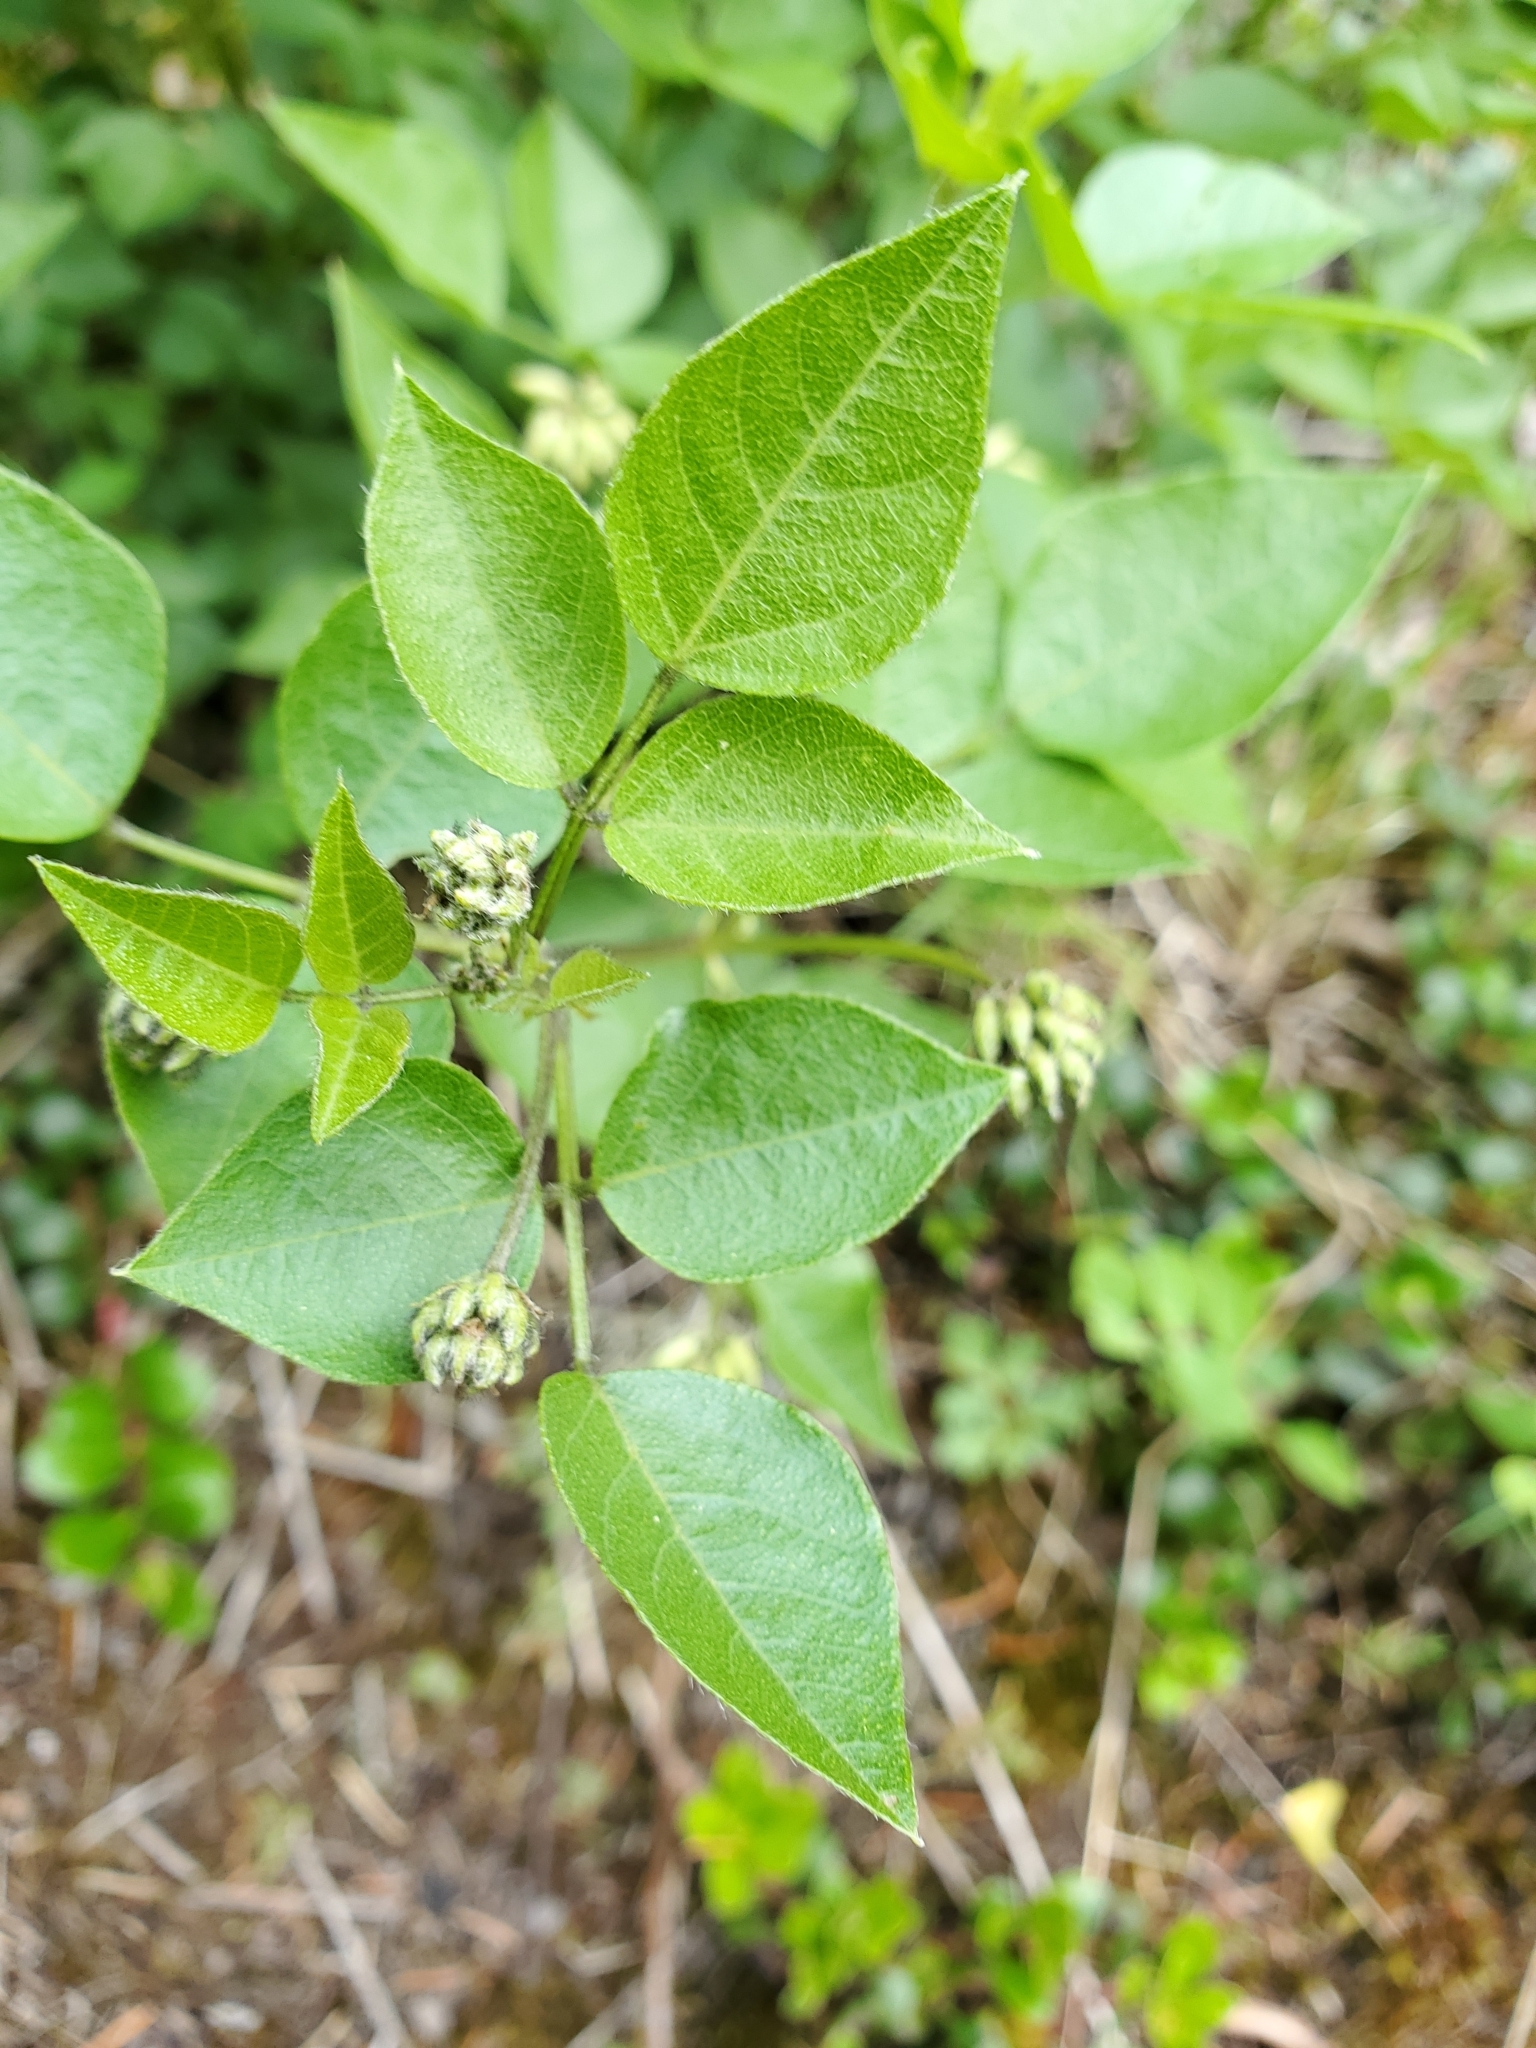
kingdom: Plantae
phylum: Tracheophyta
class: Magnoliopsida
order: Fabales
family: Fabaceae
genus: Rupertia
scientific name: Rupertia physodes
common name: California-tea
